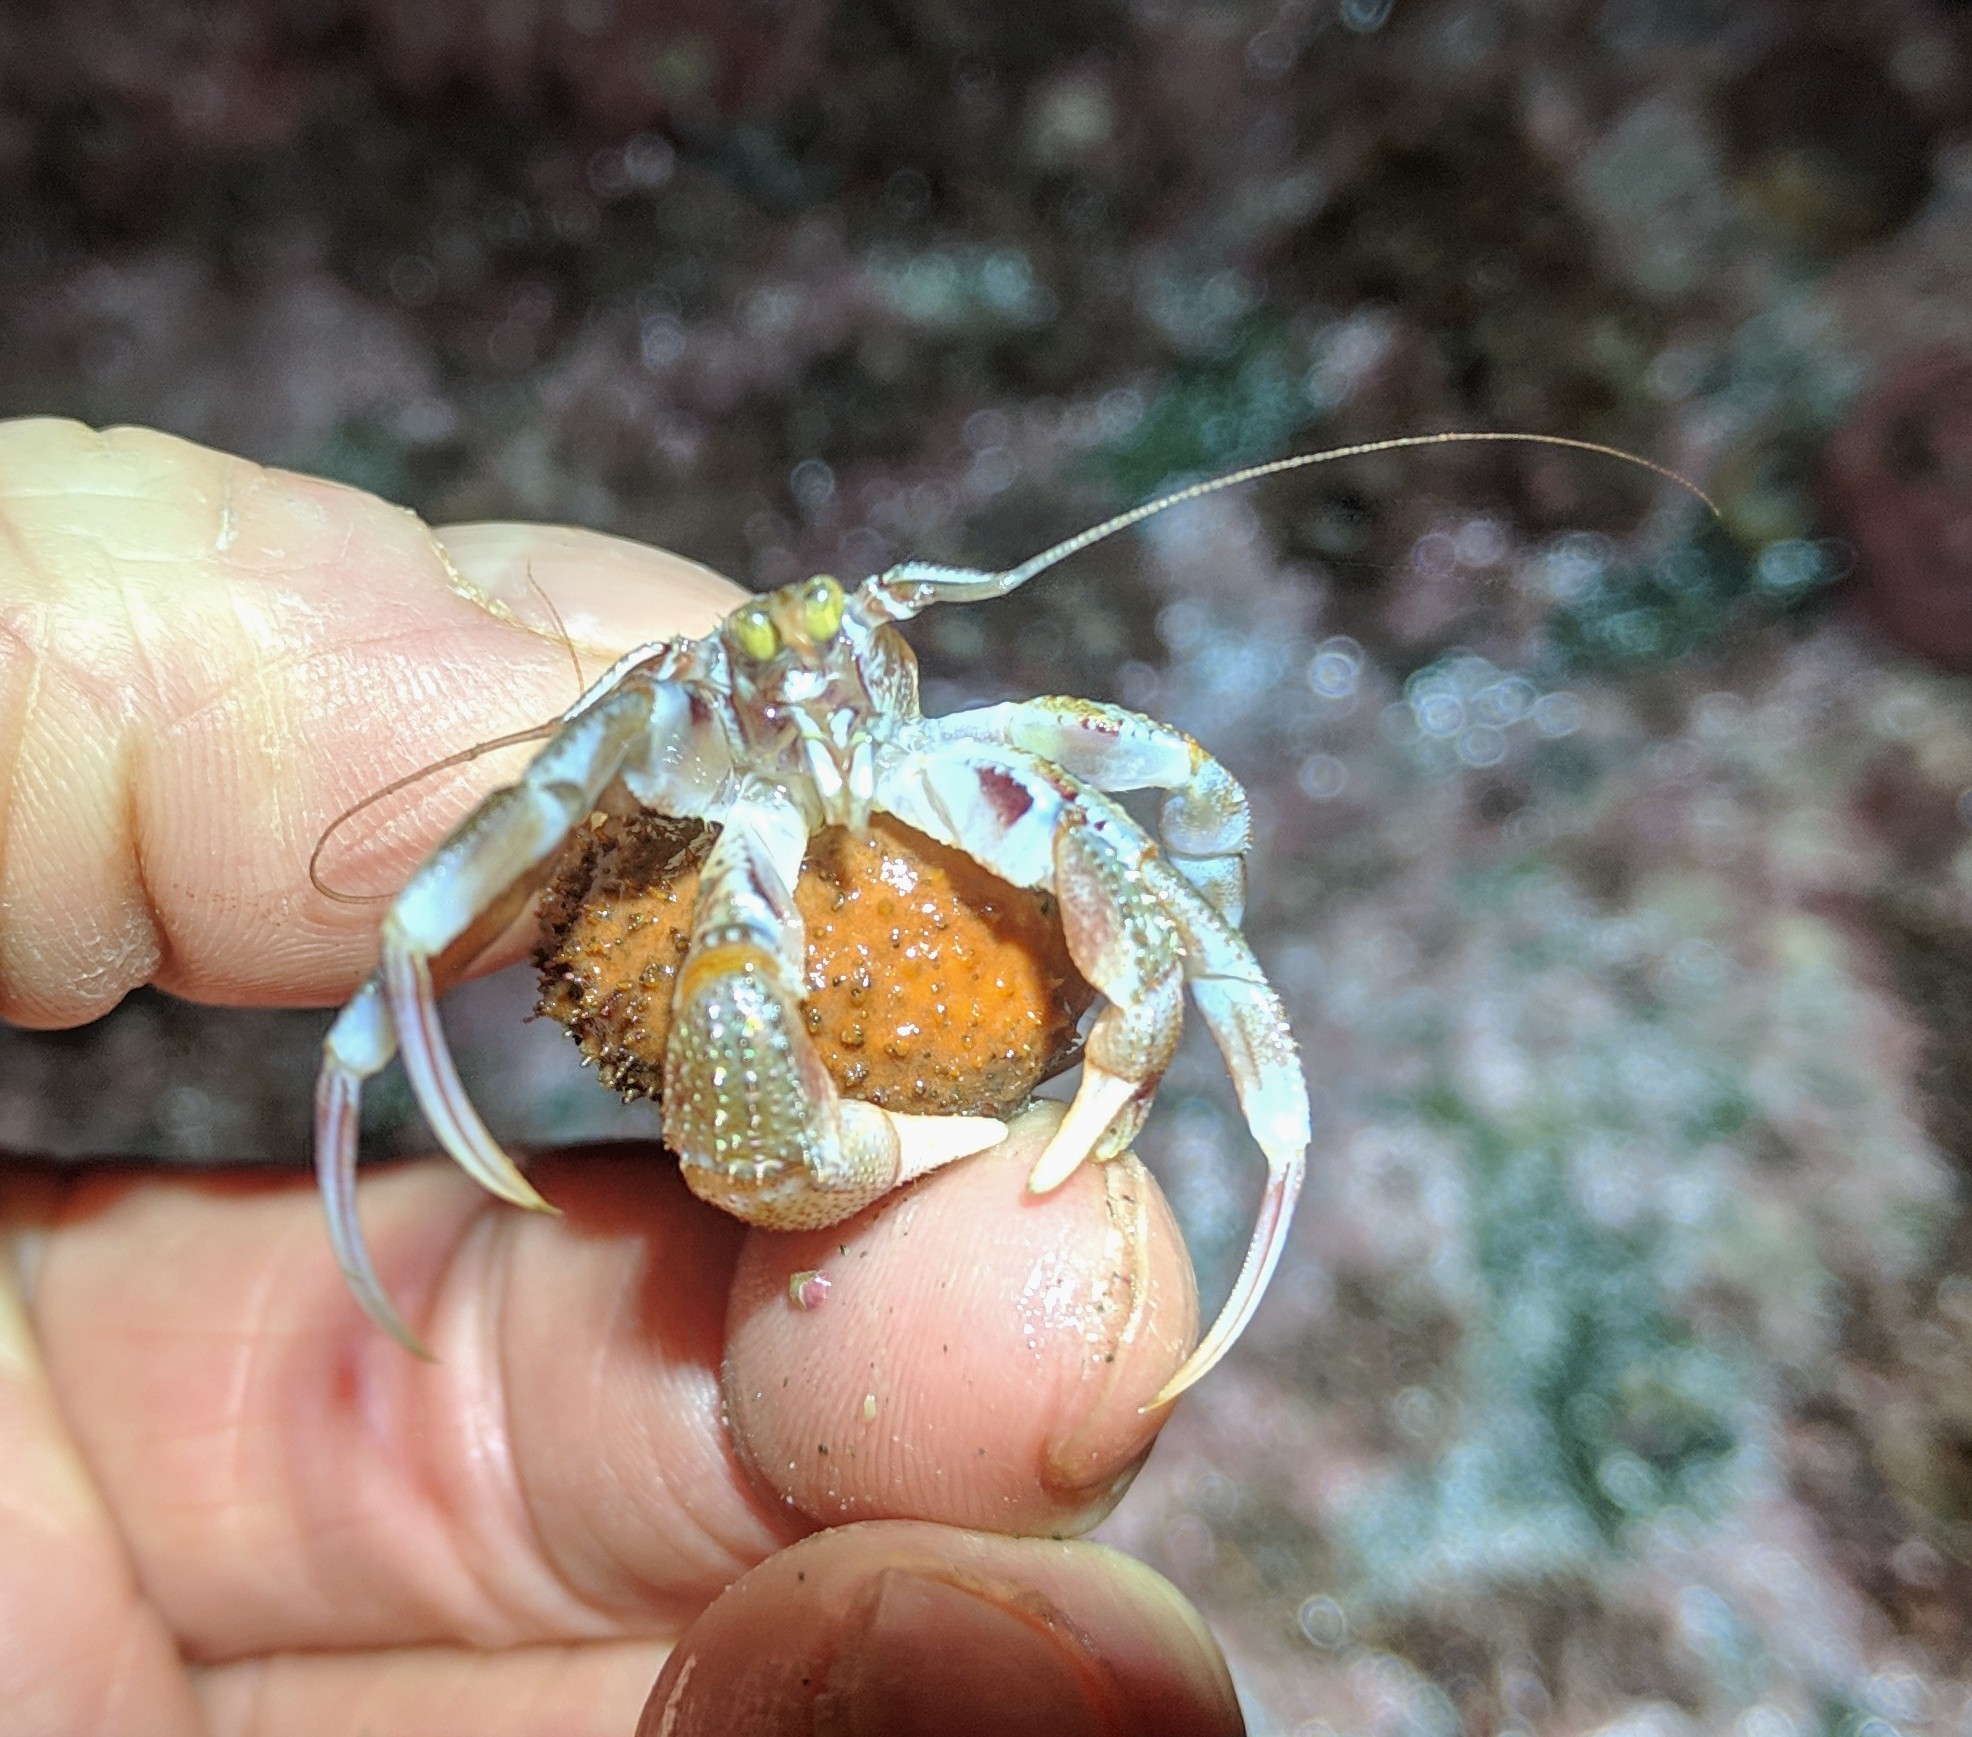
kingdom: Animalia
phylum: Arthropoda
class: Malacostraca
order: Decapoda
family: Paguridae
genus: Pagurus
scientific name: Pagurus ochotensis
